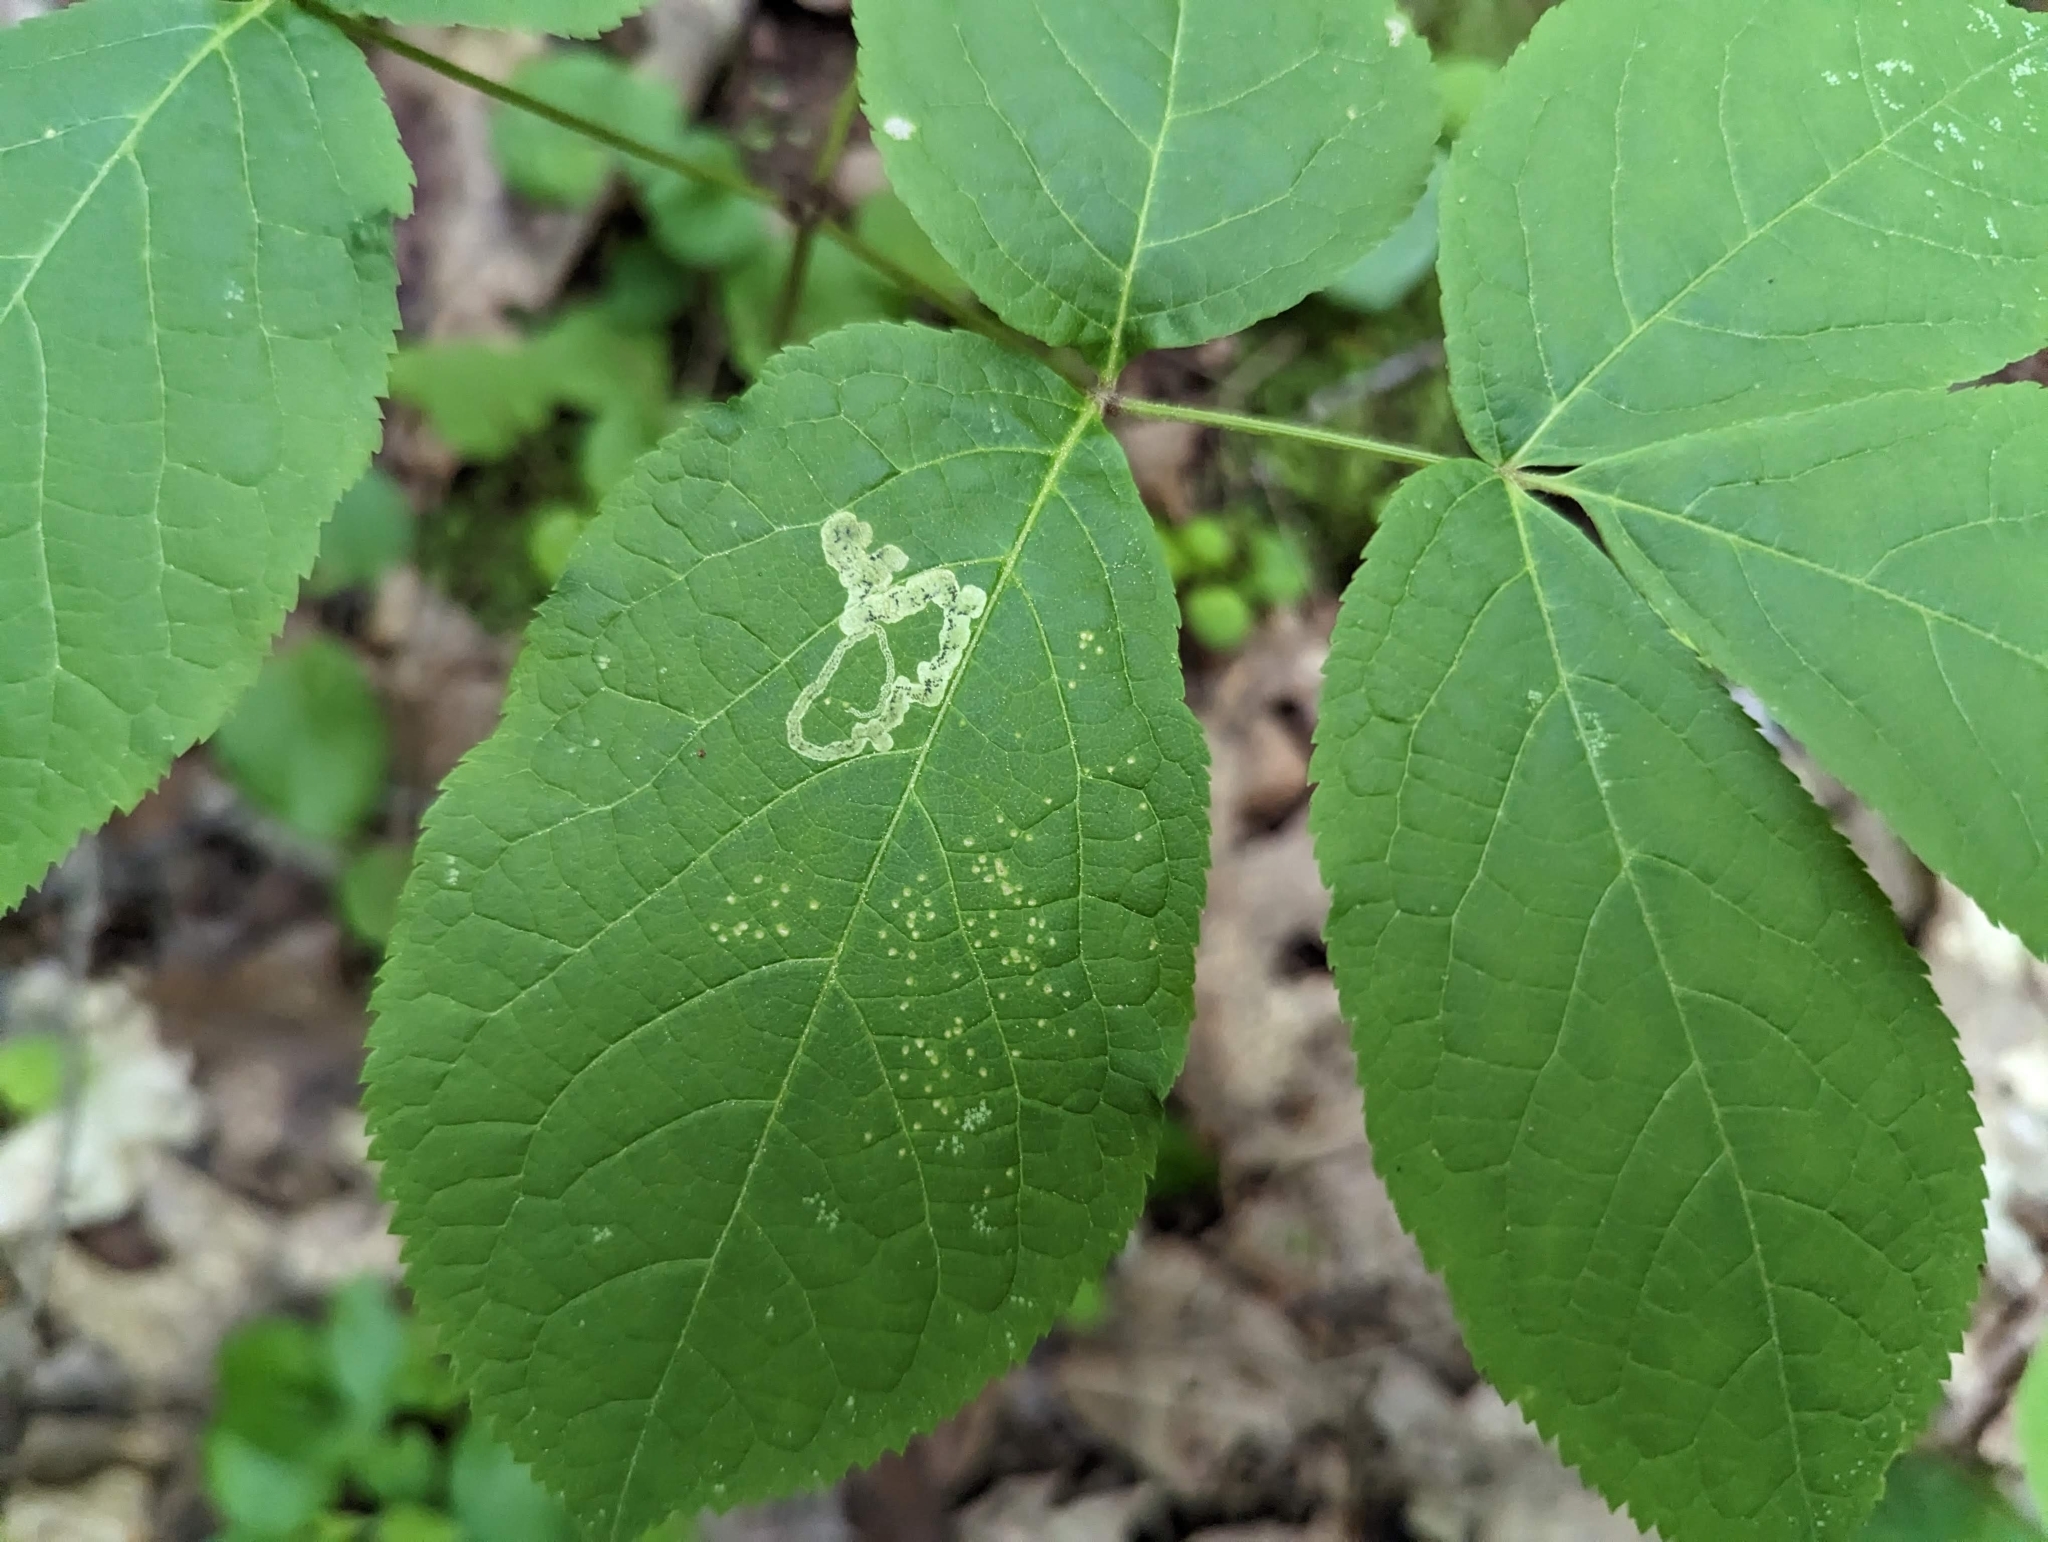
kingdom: Animalia
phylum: Arthropoda
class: Insecta
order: Diptera
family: Agromyzidae
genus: Phytomyza
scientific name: Phytomyza aralivora
